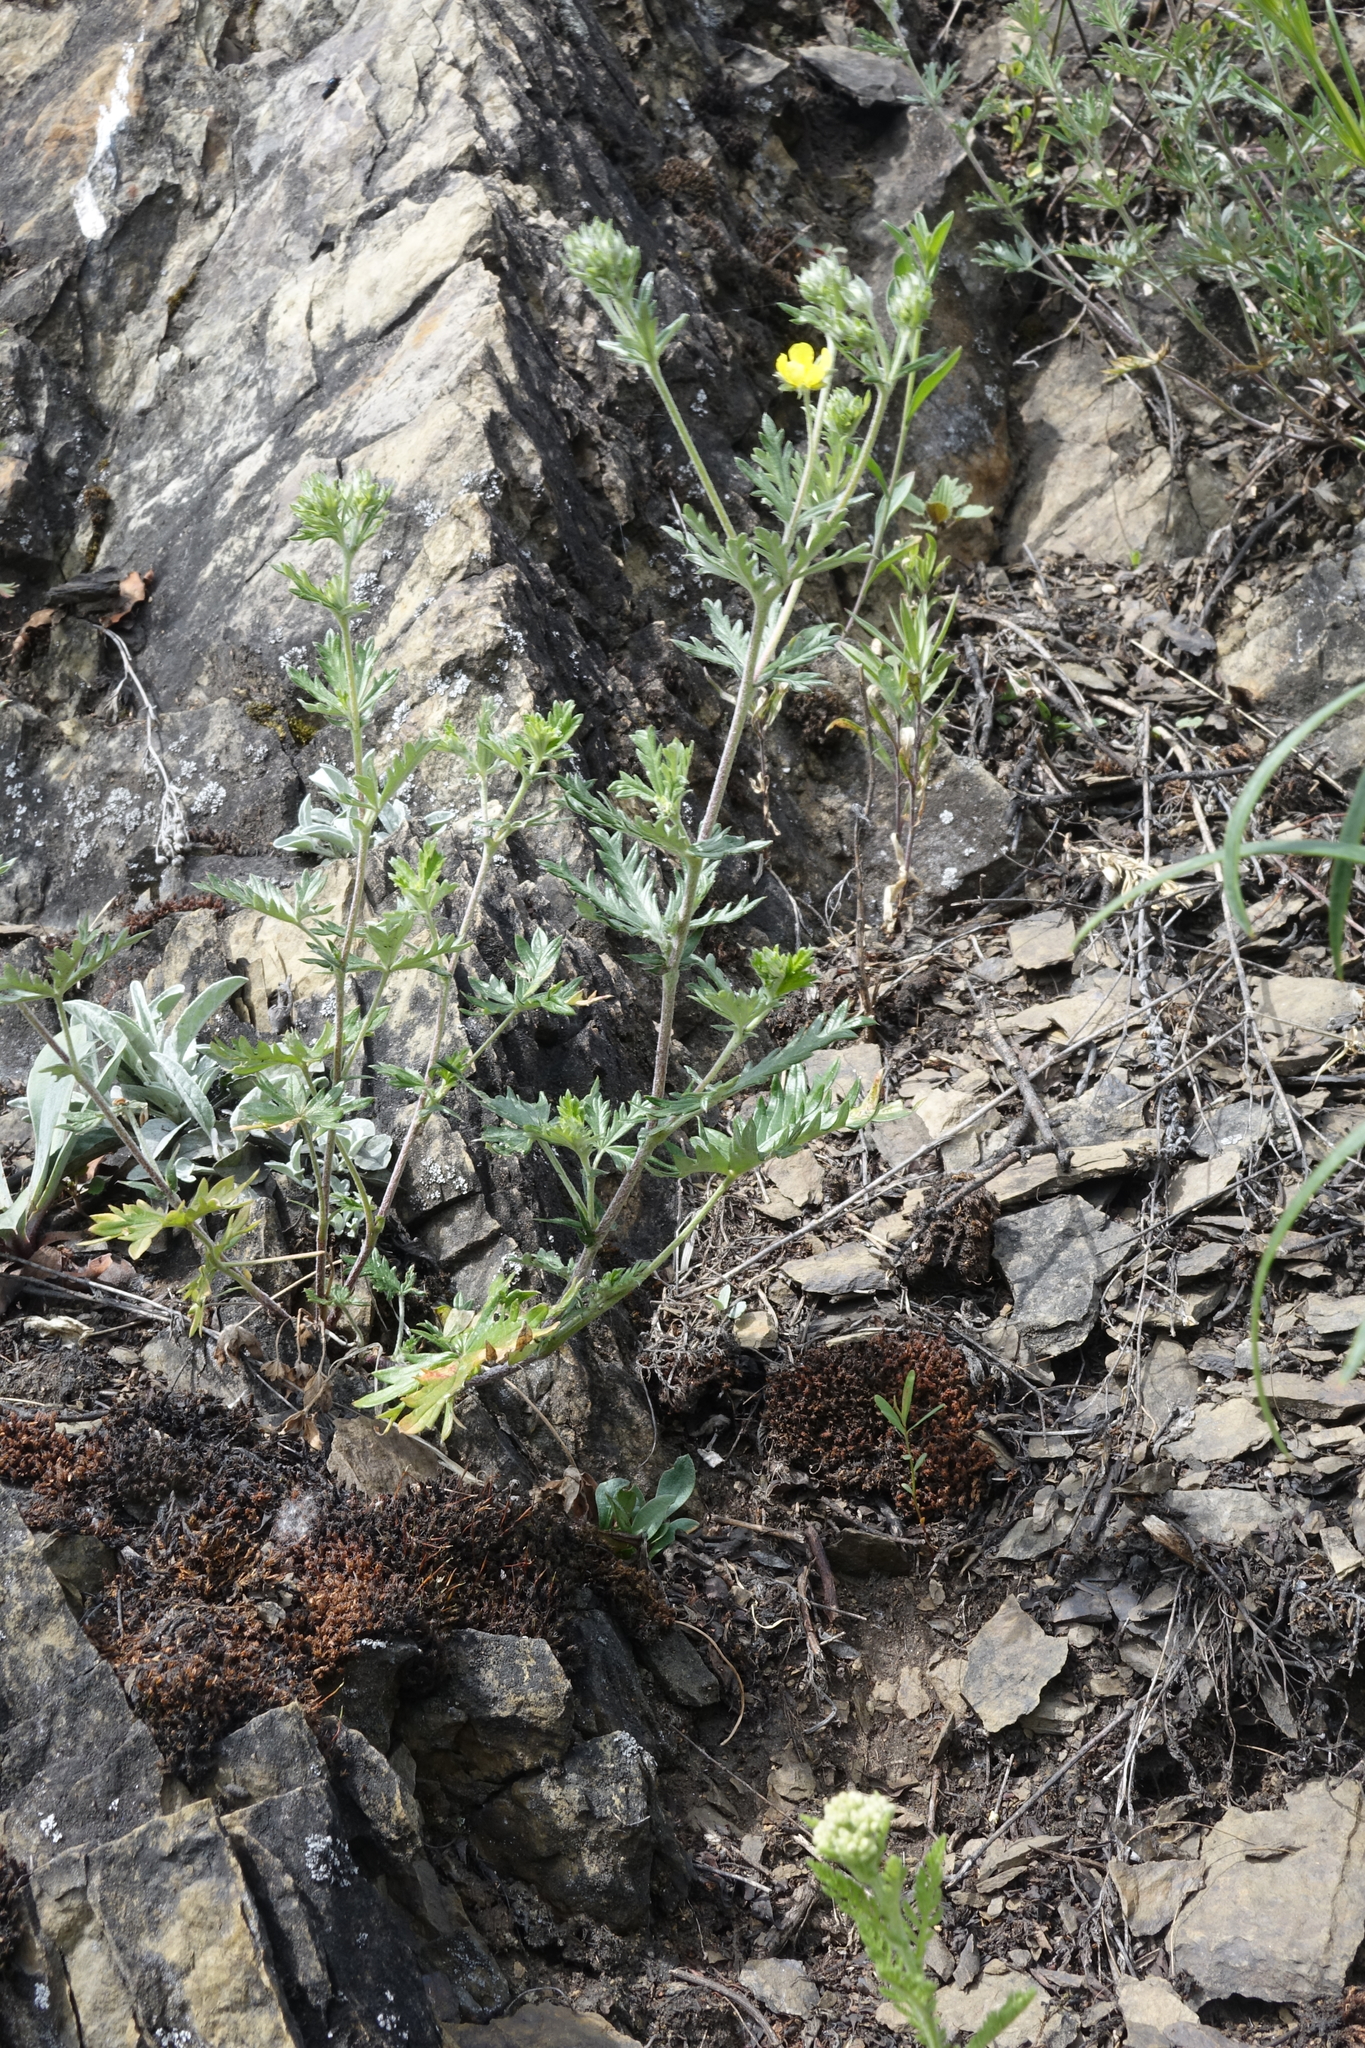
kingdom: Plantae
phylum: Tracheophyta
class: Magnoliopsida
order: Rosales
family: Rosaceae
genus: Potentilla
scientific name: Potentilla argentea
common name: Hoary cinquefoil
